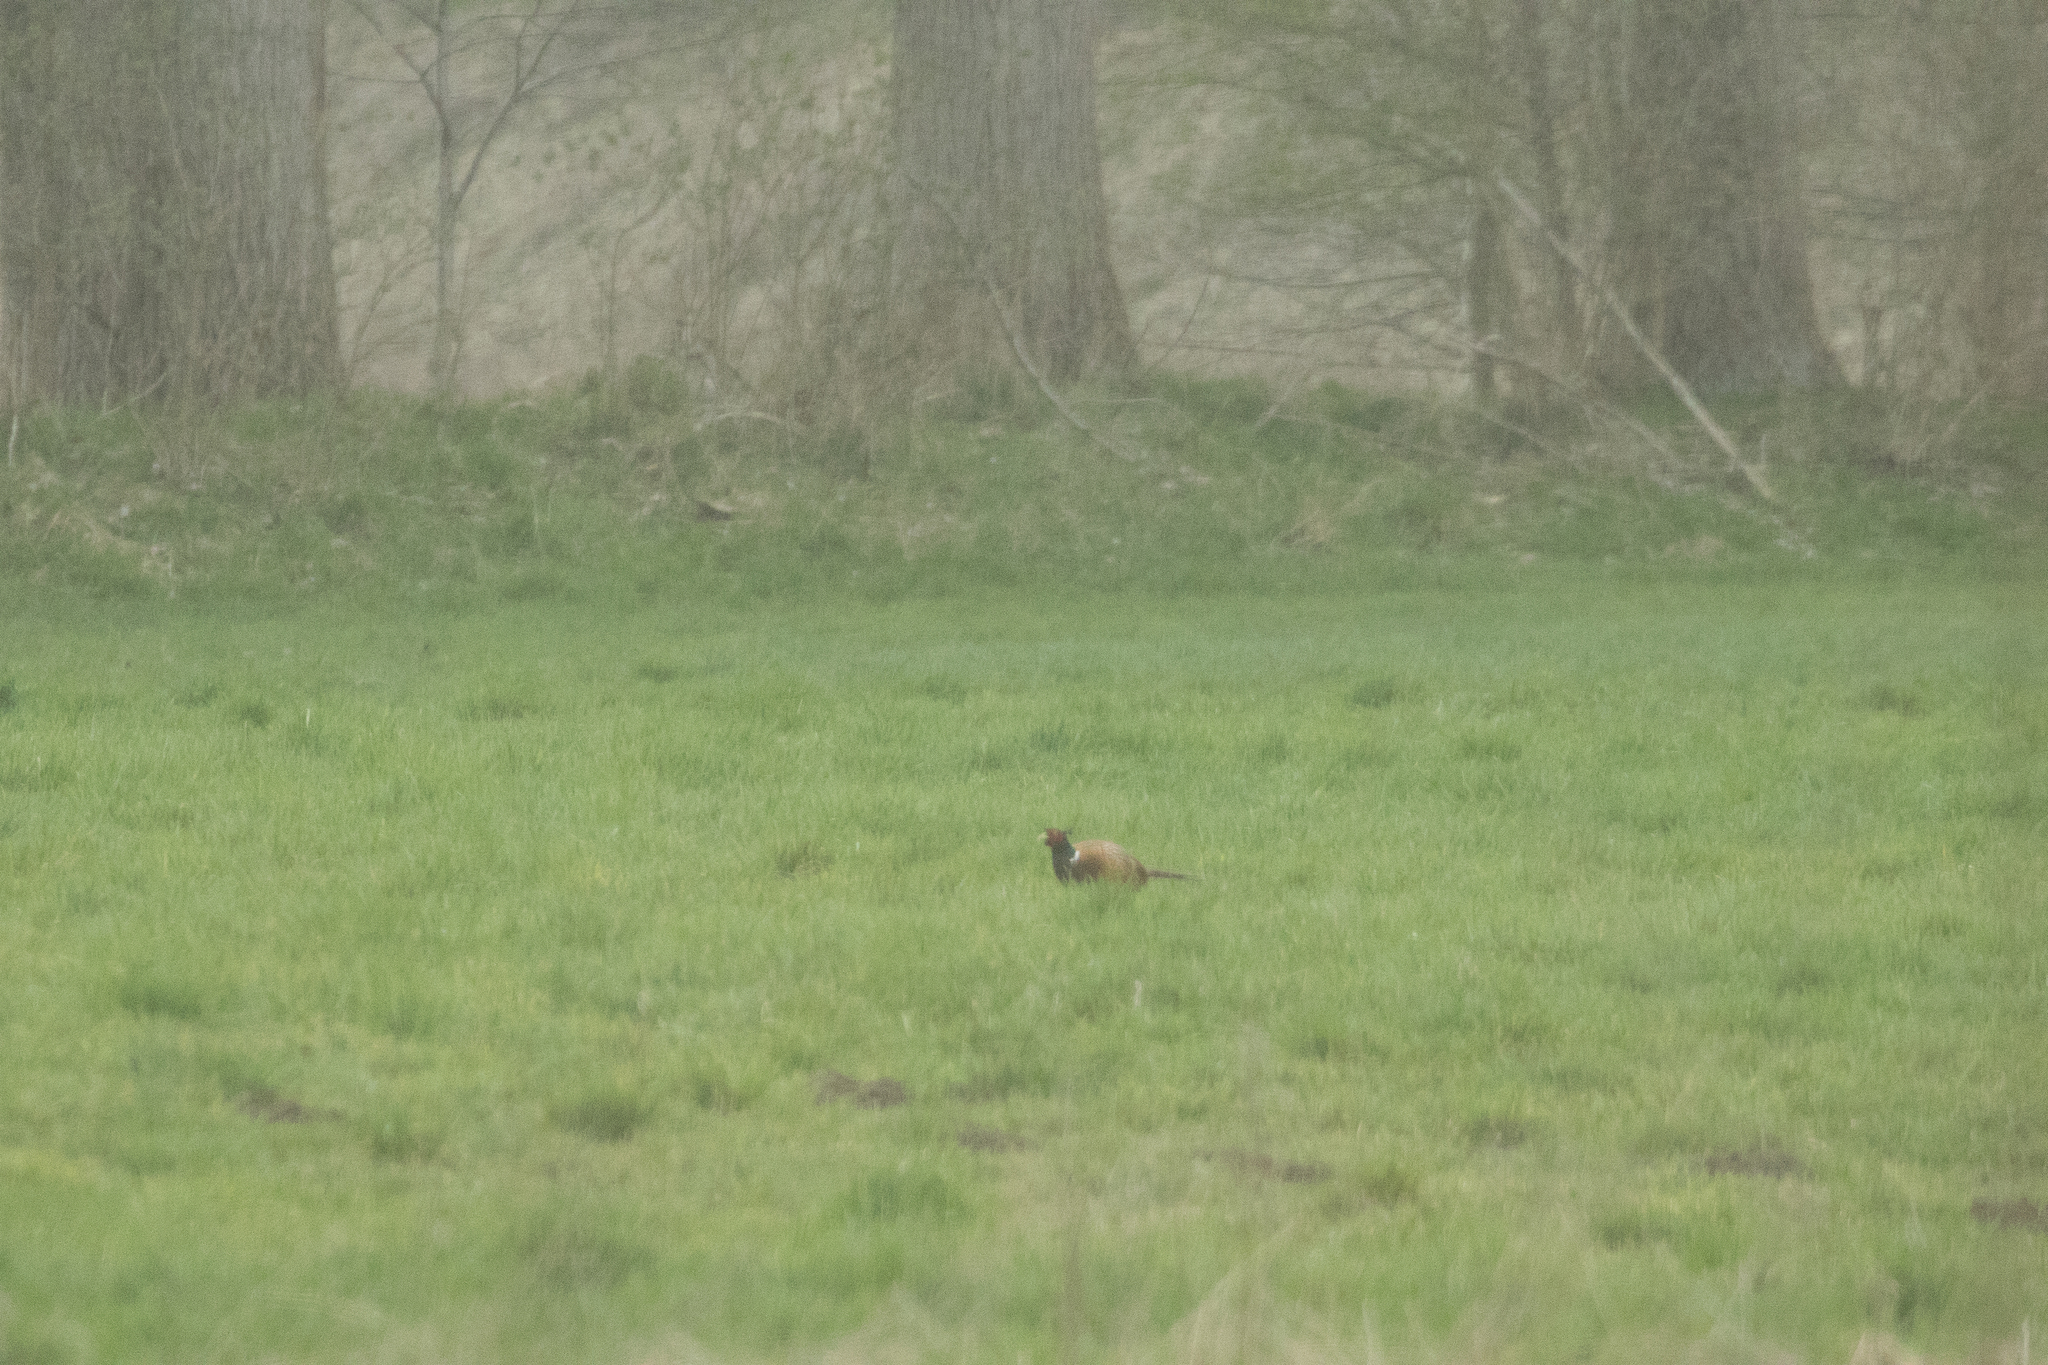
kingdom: Animalia
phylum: Chordata
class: Aves
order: Galliformes
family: Phasianidae
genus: Phasianus
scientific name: Phasianus colchicus
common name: Common pheasant
